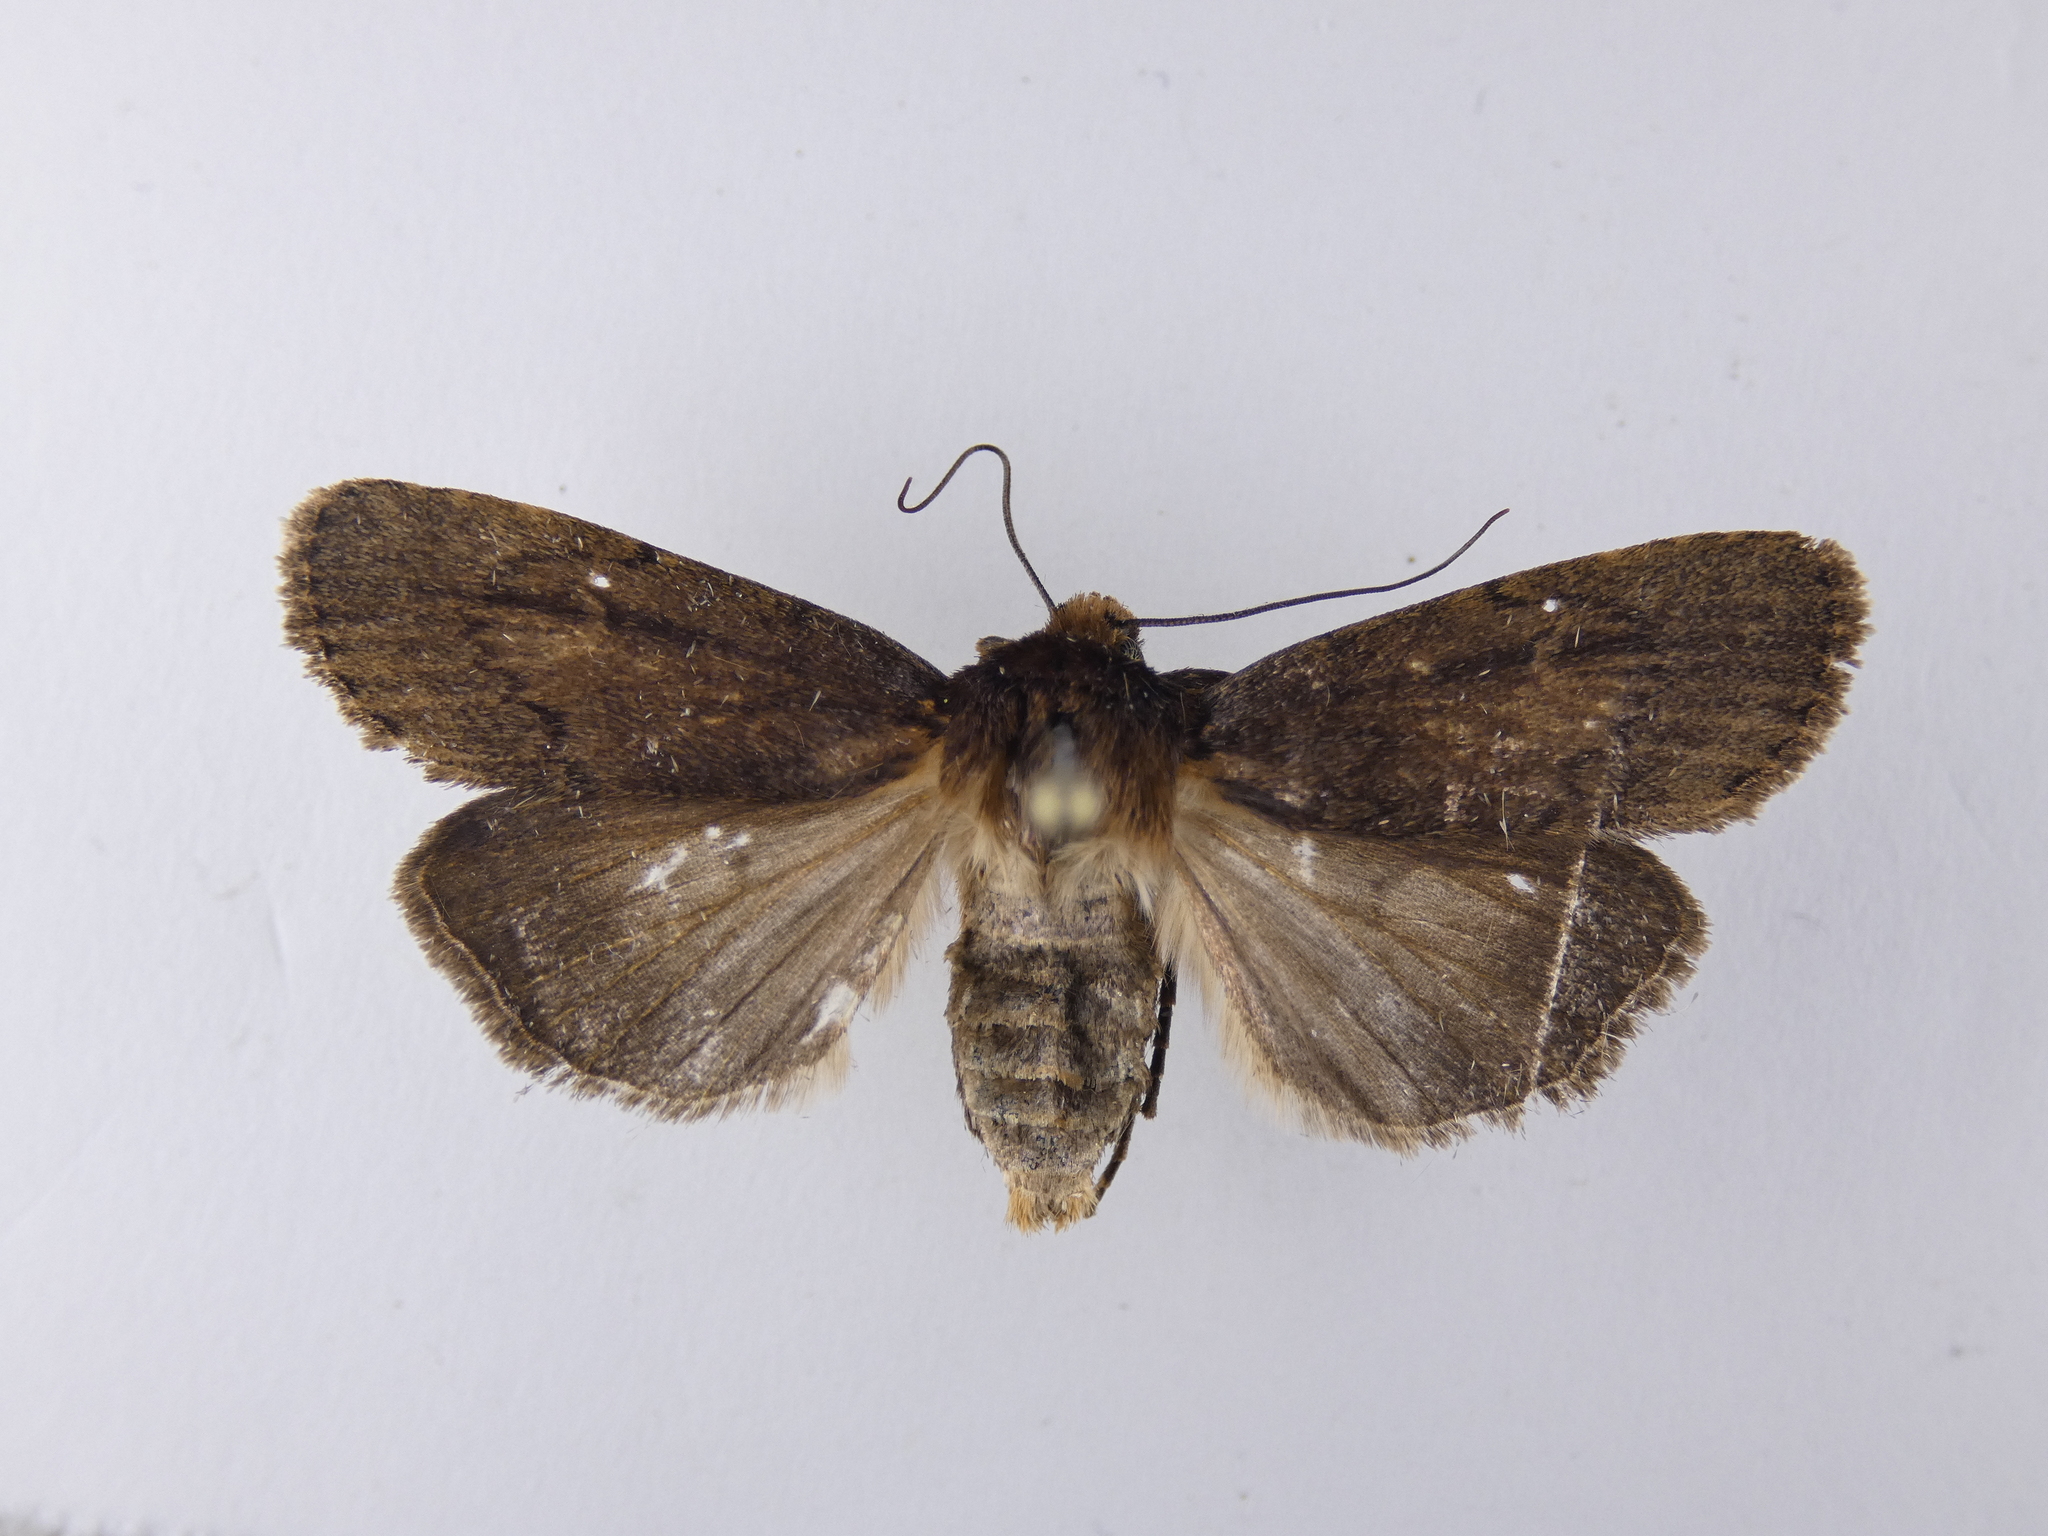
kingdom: Animalia
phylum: Arthropoda
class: Insecta
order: Lepidoptera
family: Noctuidae
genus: Bityla
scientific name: Bityla defigurata
